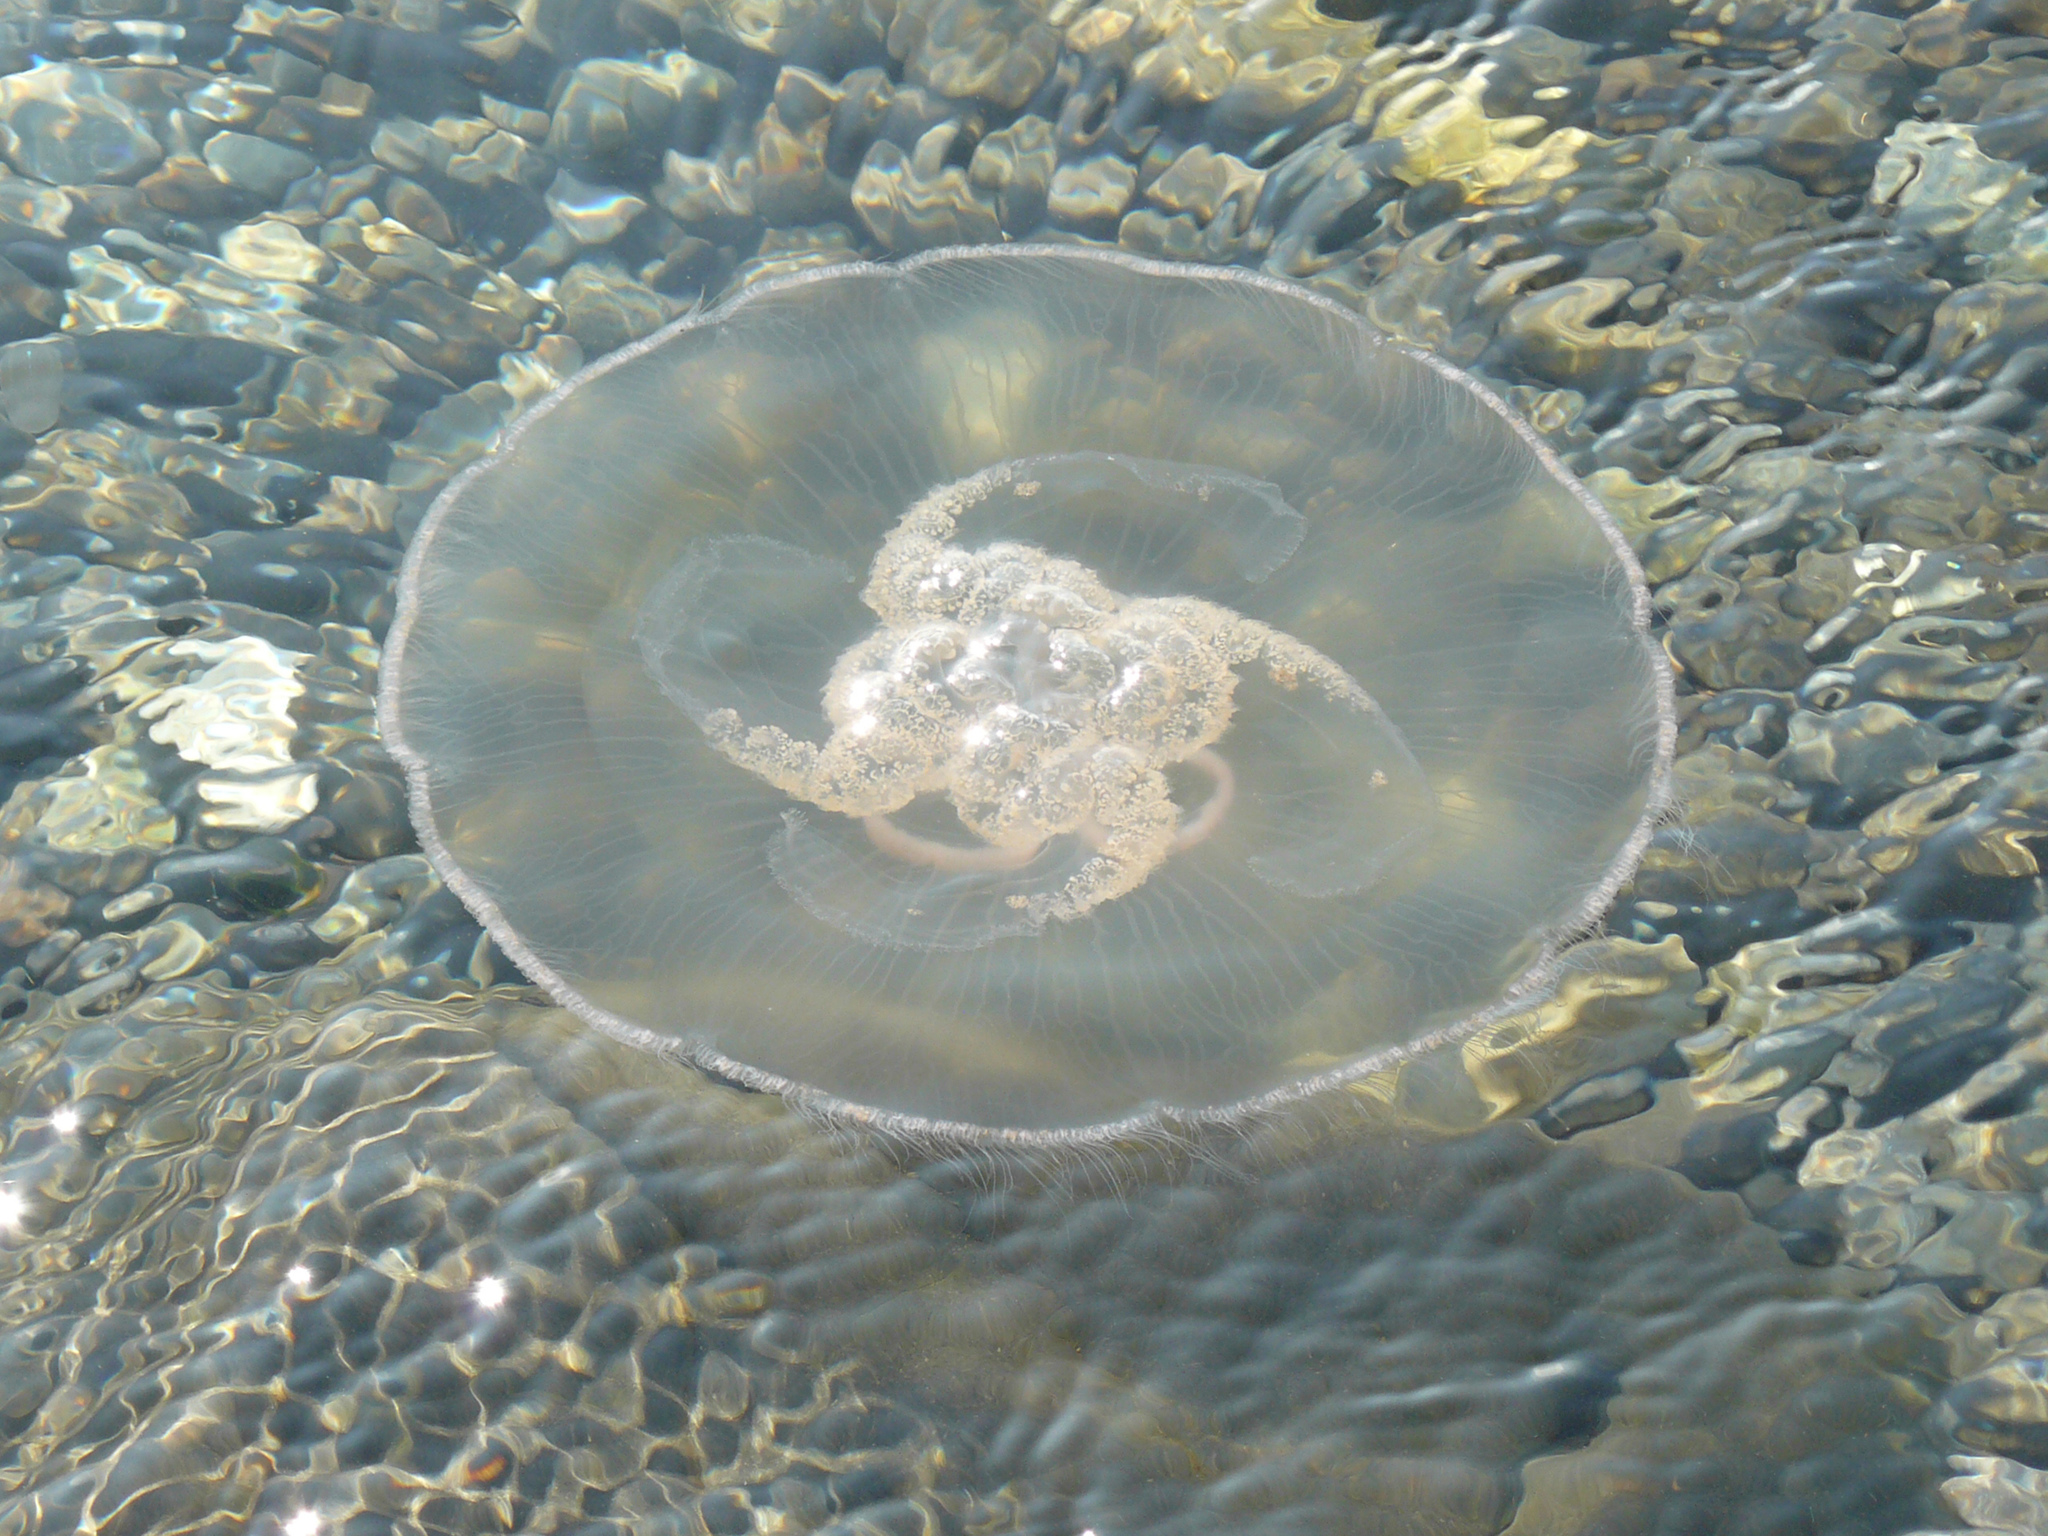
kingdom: Animalia
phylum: Cnidaria
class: Scyphozoa
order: Semaeostomeae
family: Ulmaridae
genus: Aurelia
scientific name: Aurelia aurita
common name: Moon jellyfish
